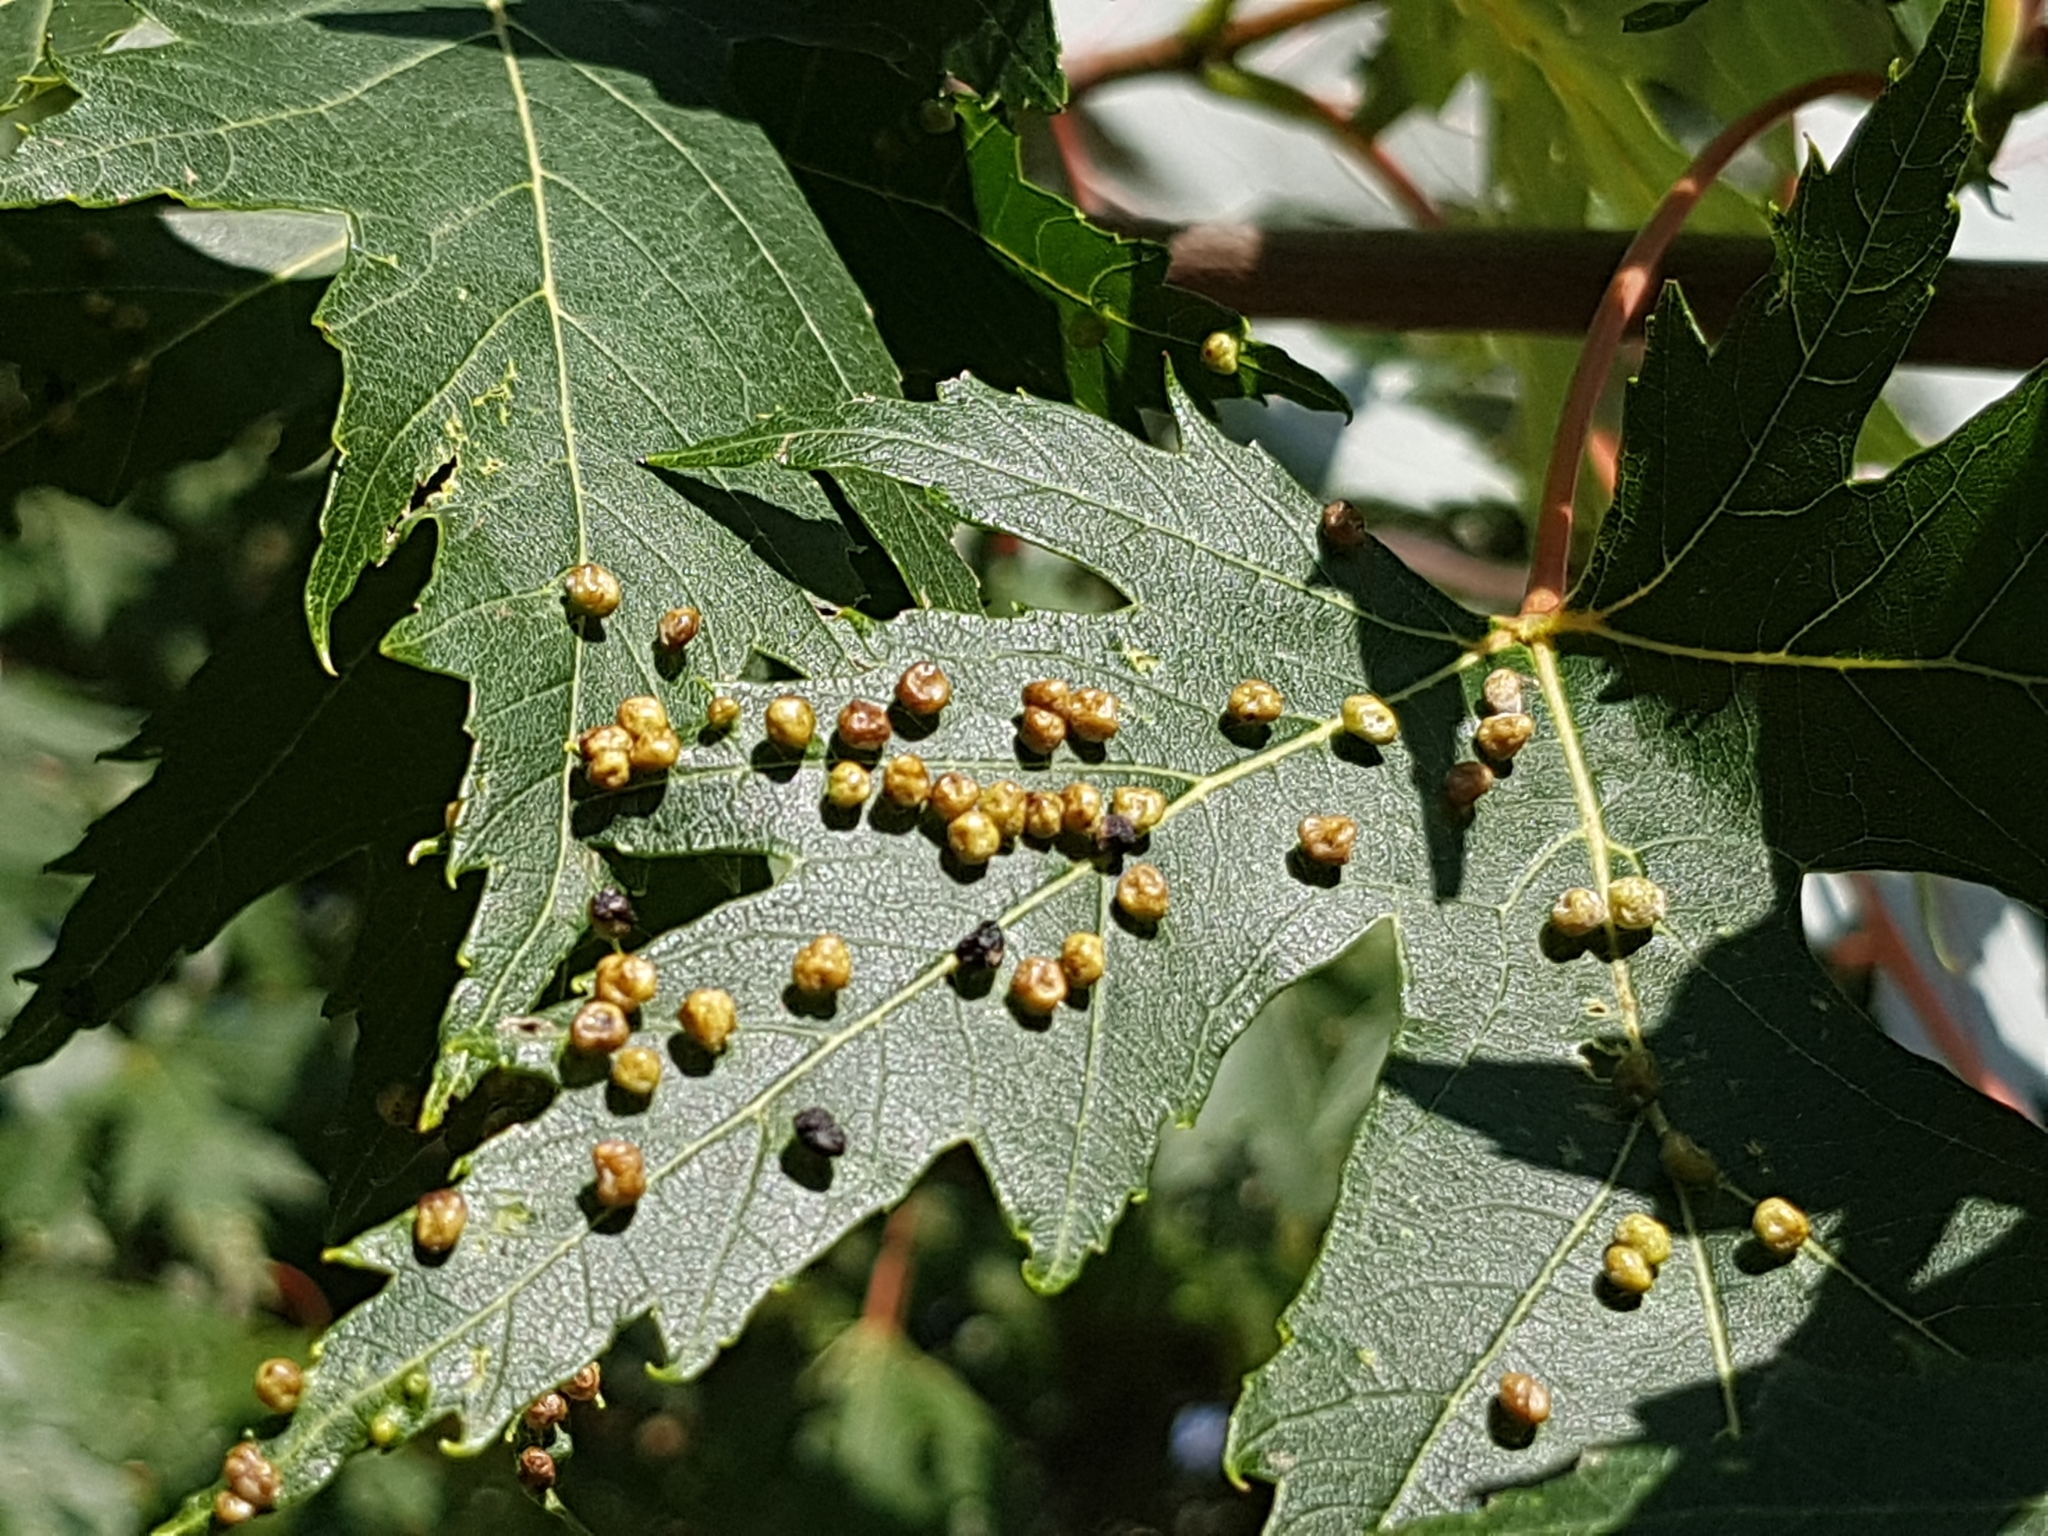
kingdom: Animalia
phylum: Arthropoda
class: Arachnida
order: Trombidiformes
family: Eriophyidae
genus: Vasates
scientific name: Vasates quadripedes
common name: Maple bladder gall mite
